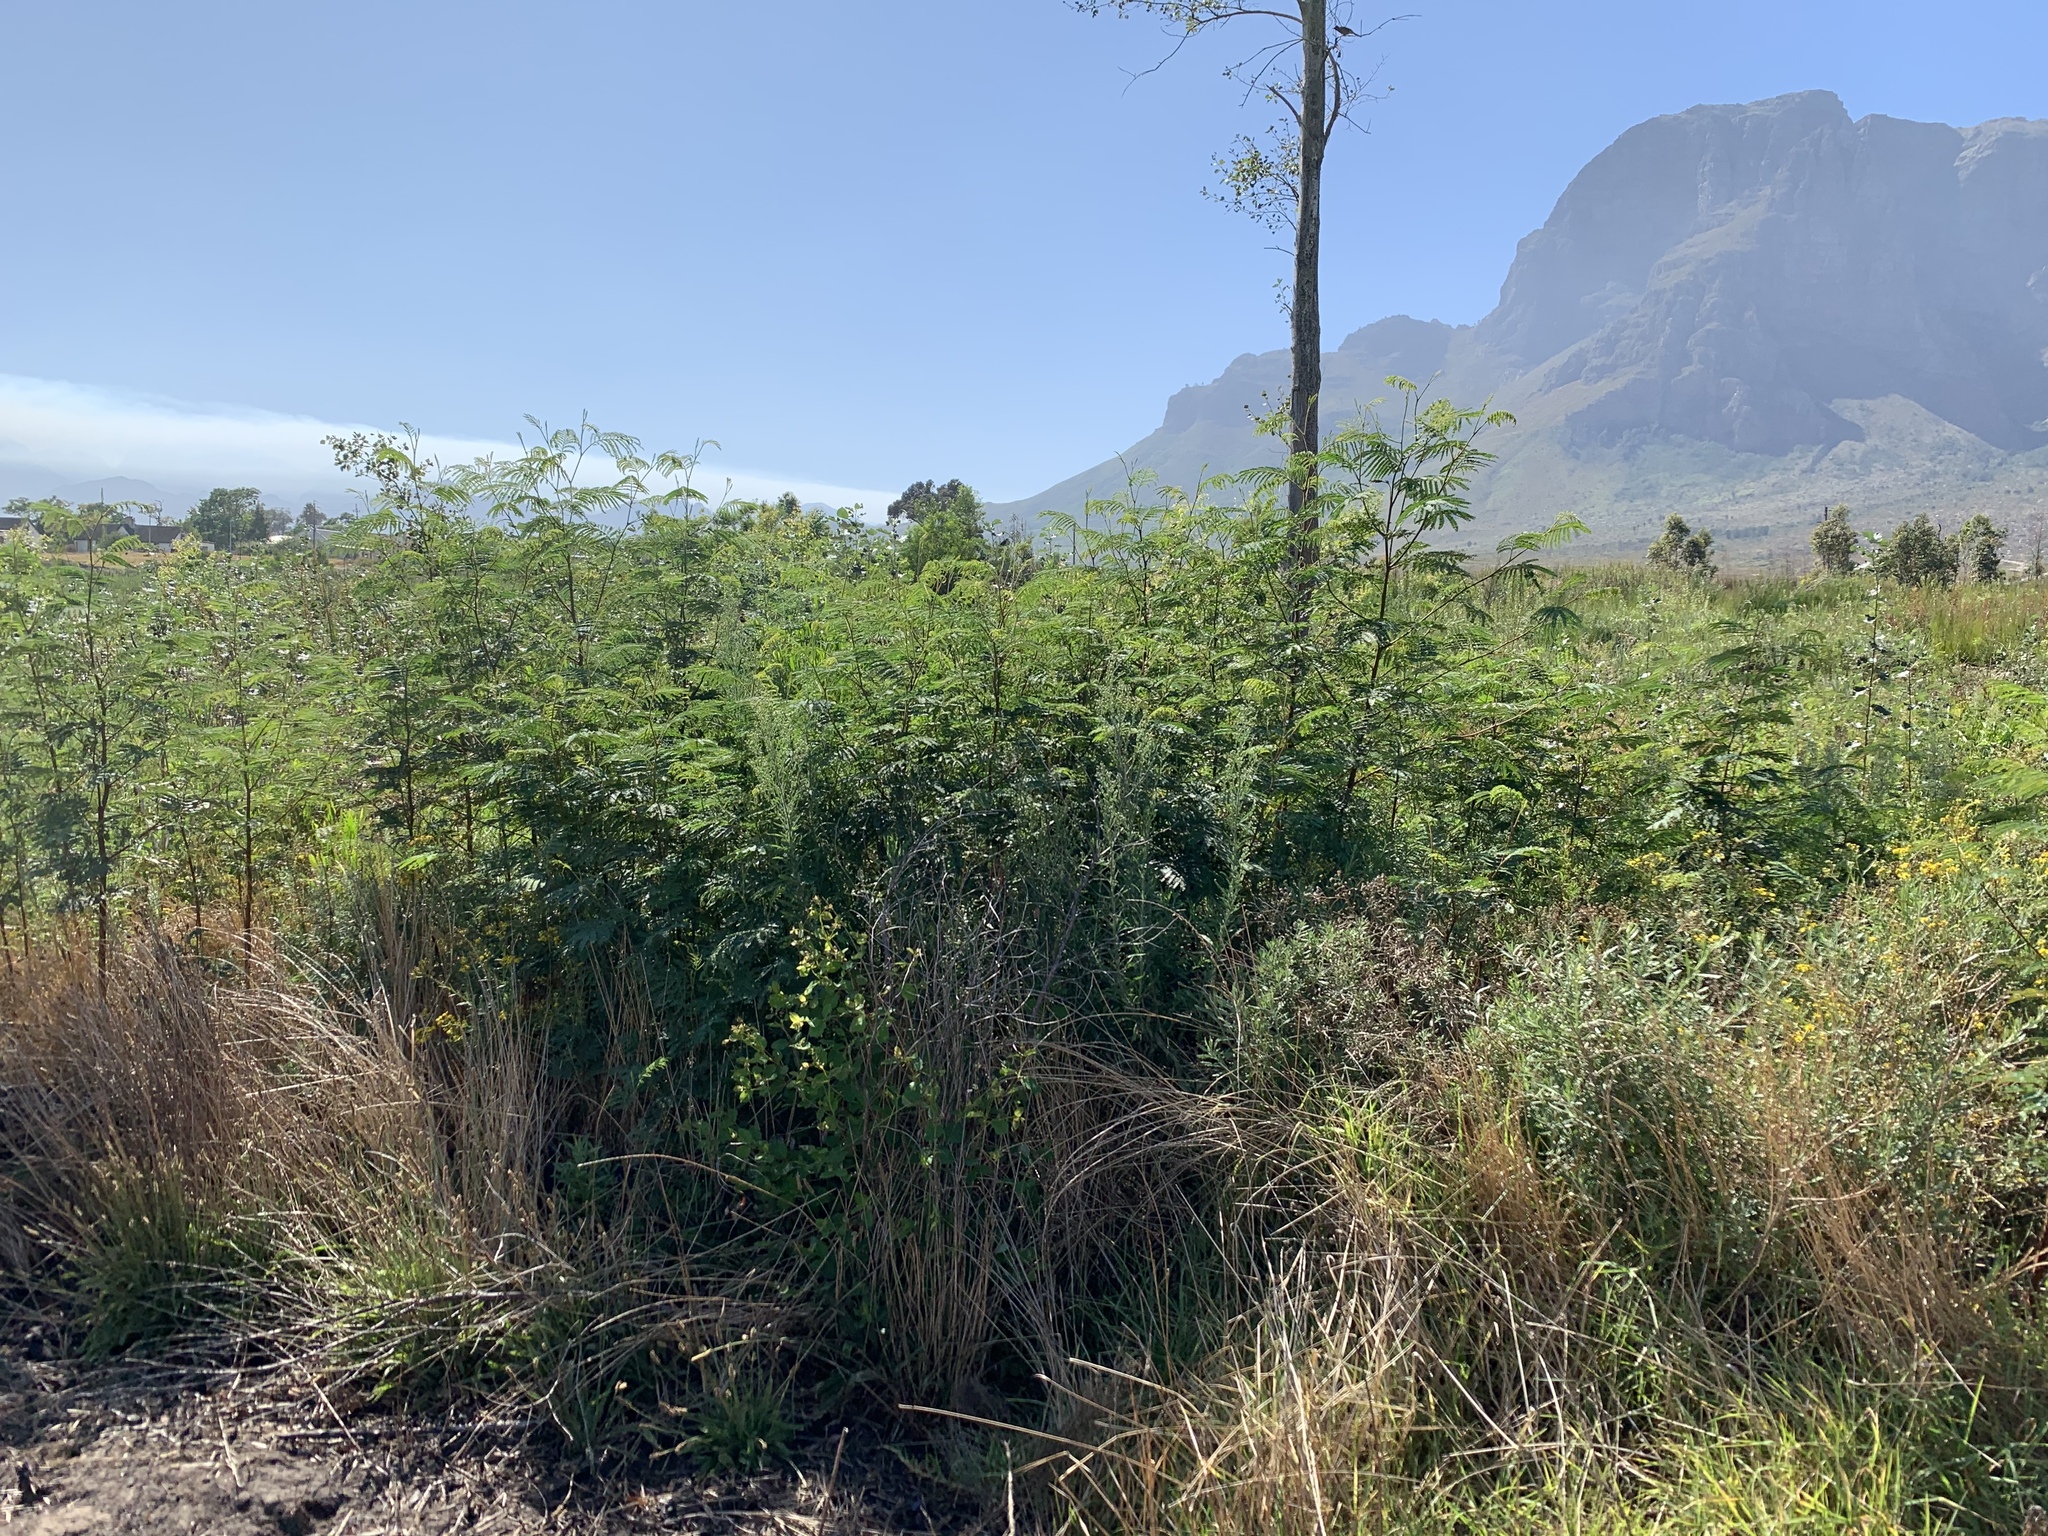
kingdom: Plantae
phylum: Tracheophyta
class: Magnoliopsida
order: Fabales
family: Fabaceae
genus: Paraserianthes
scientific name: Paraserianthes lophantha
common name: Plume albizia
